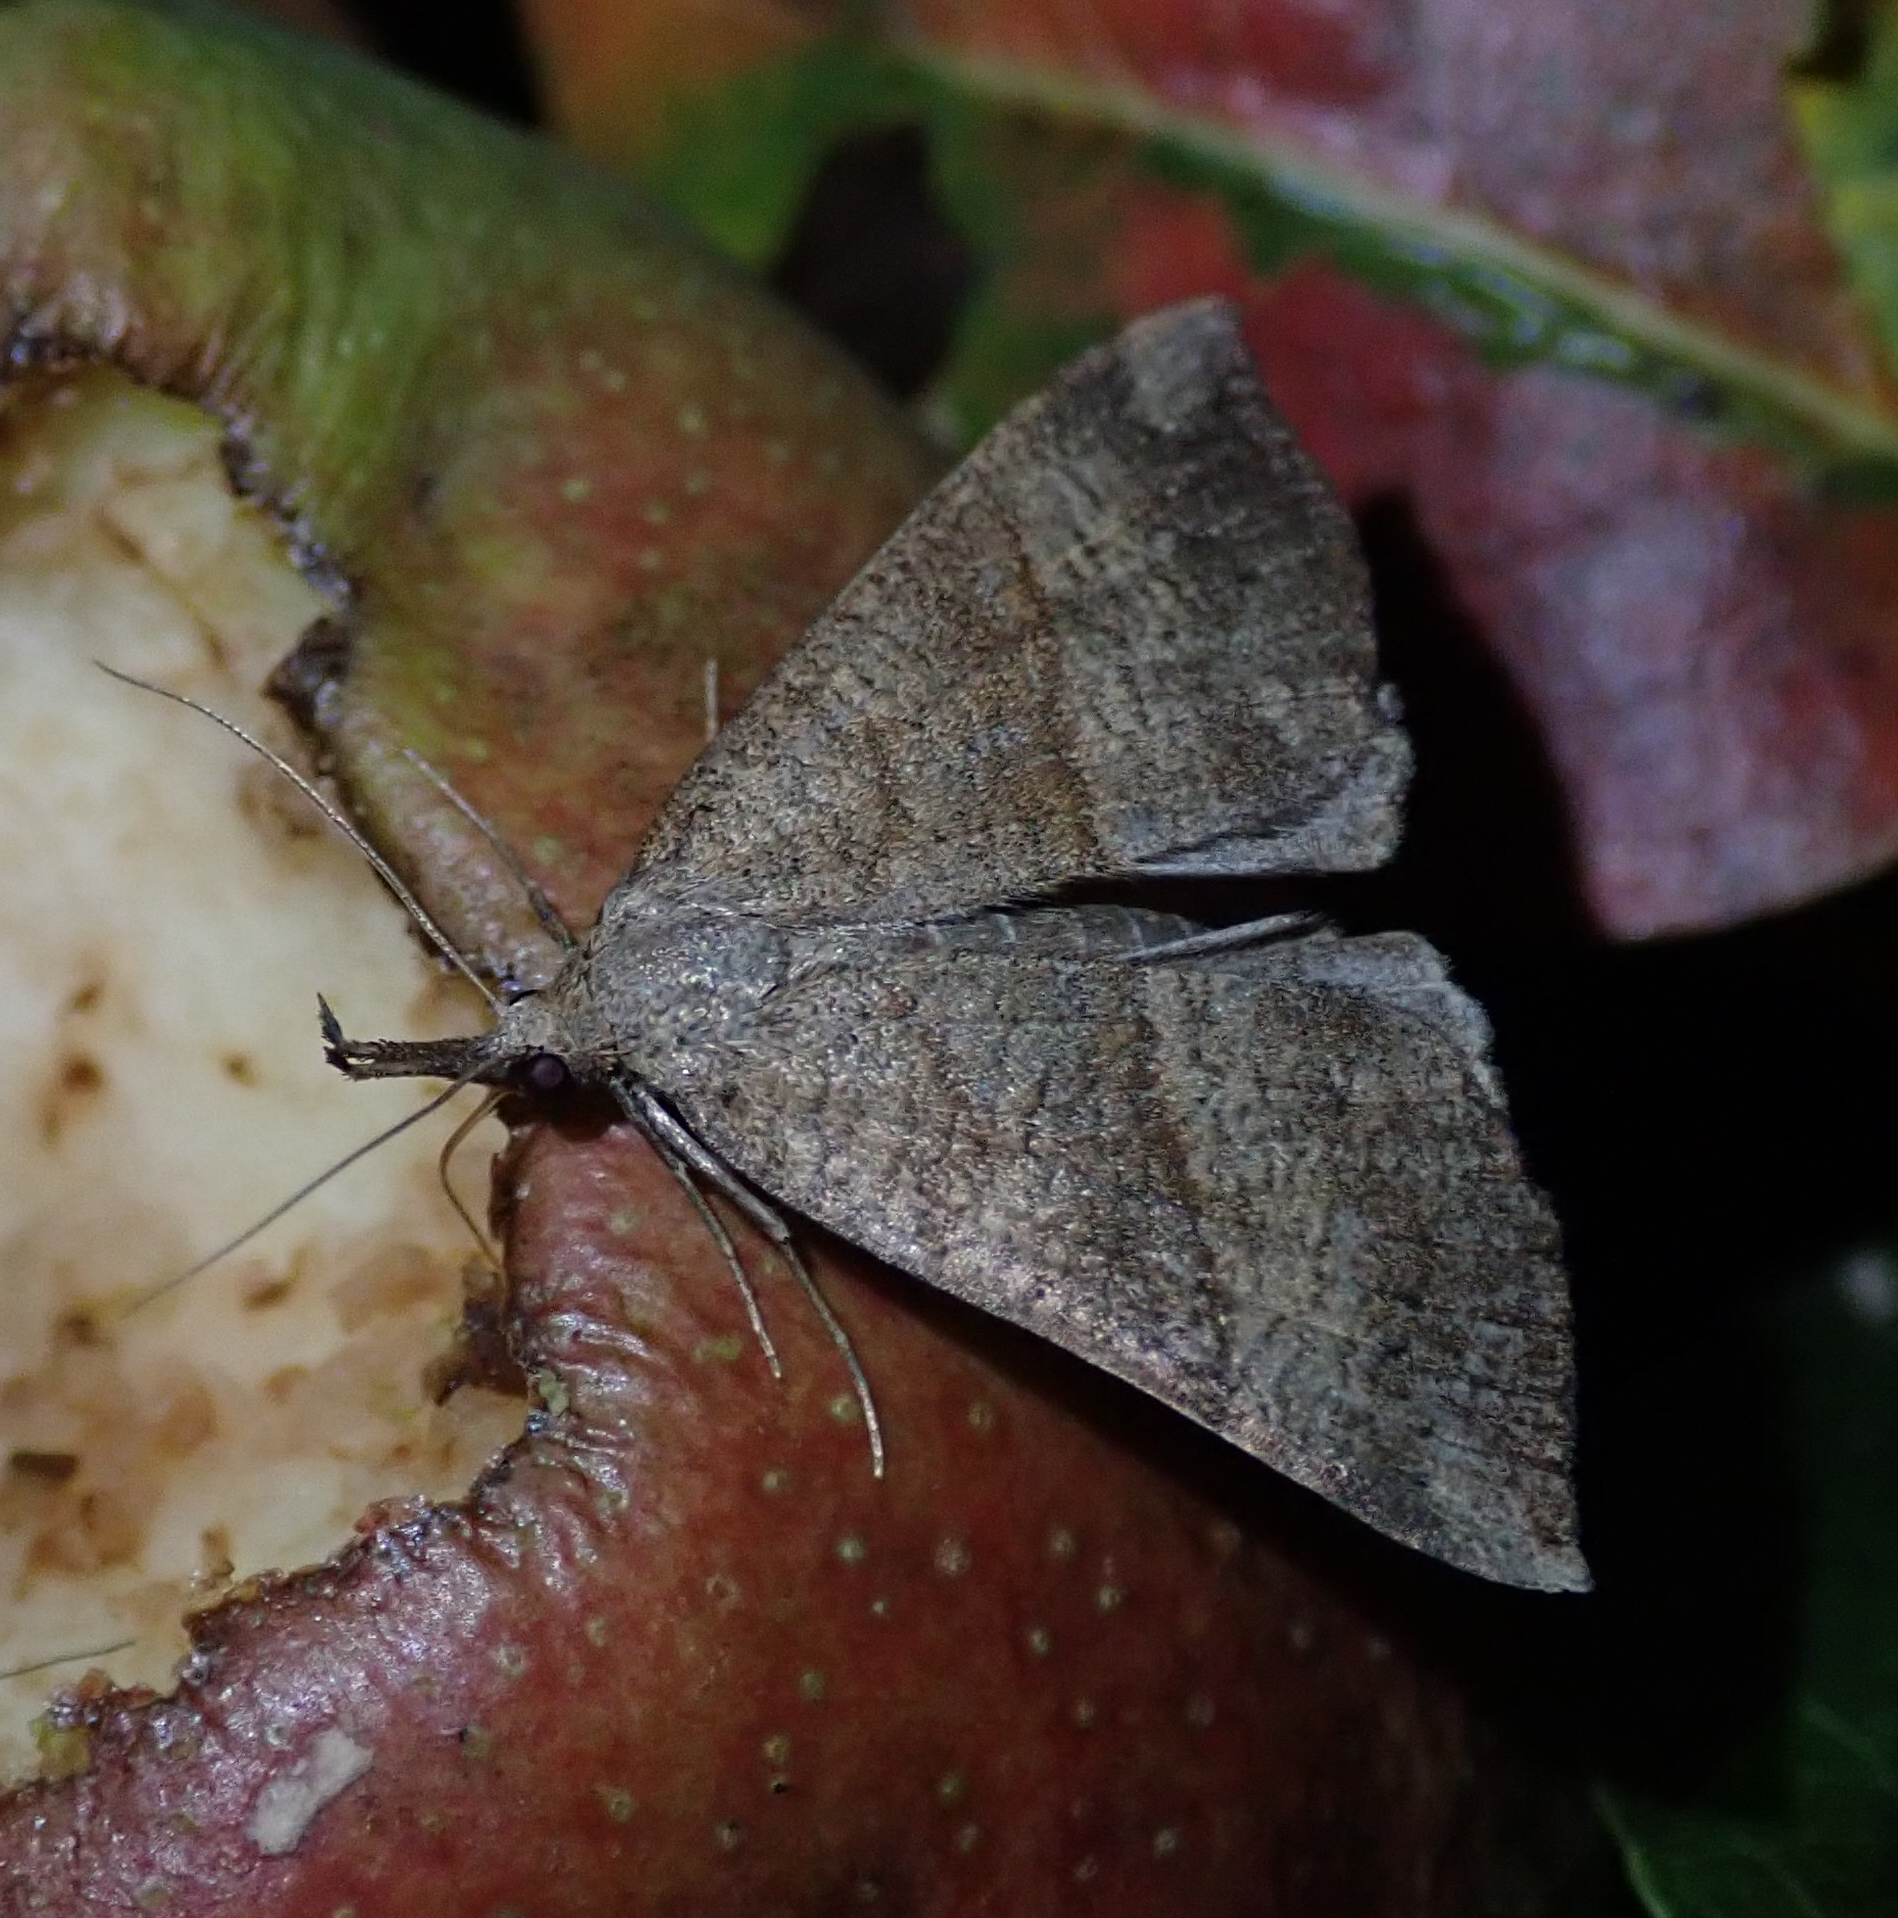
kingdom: Animalia
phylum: Arthropoda
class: Insecta
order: Lepidoptera
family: Erebidae
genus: Hypena
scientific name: Hypena proboscidalis
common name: Snout
